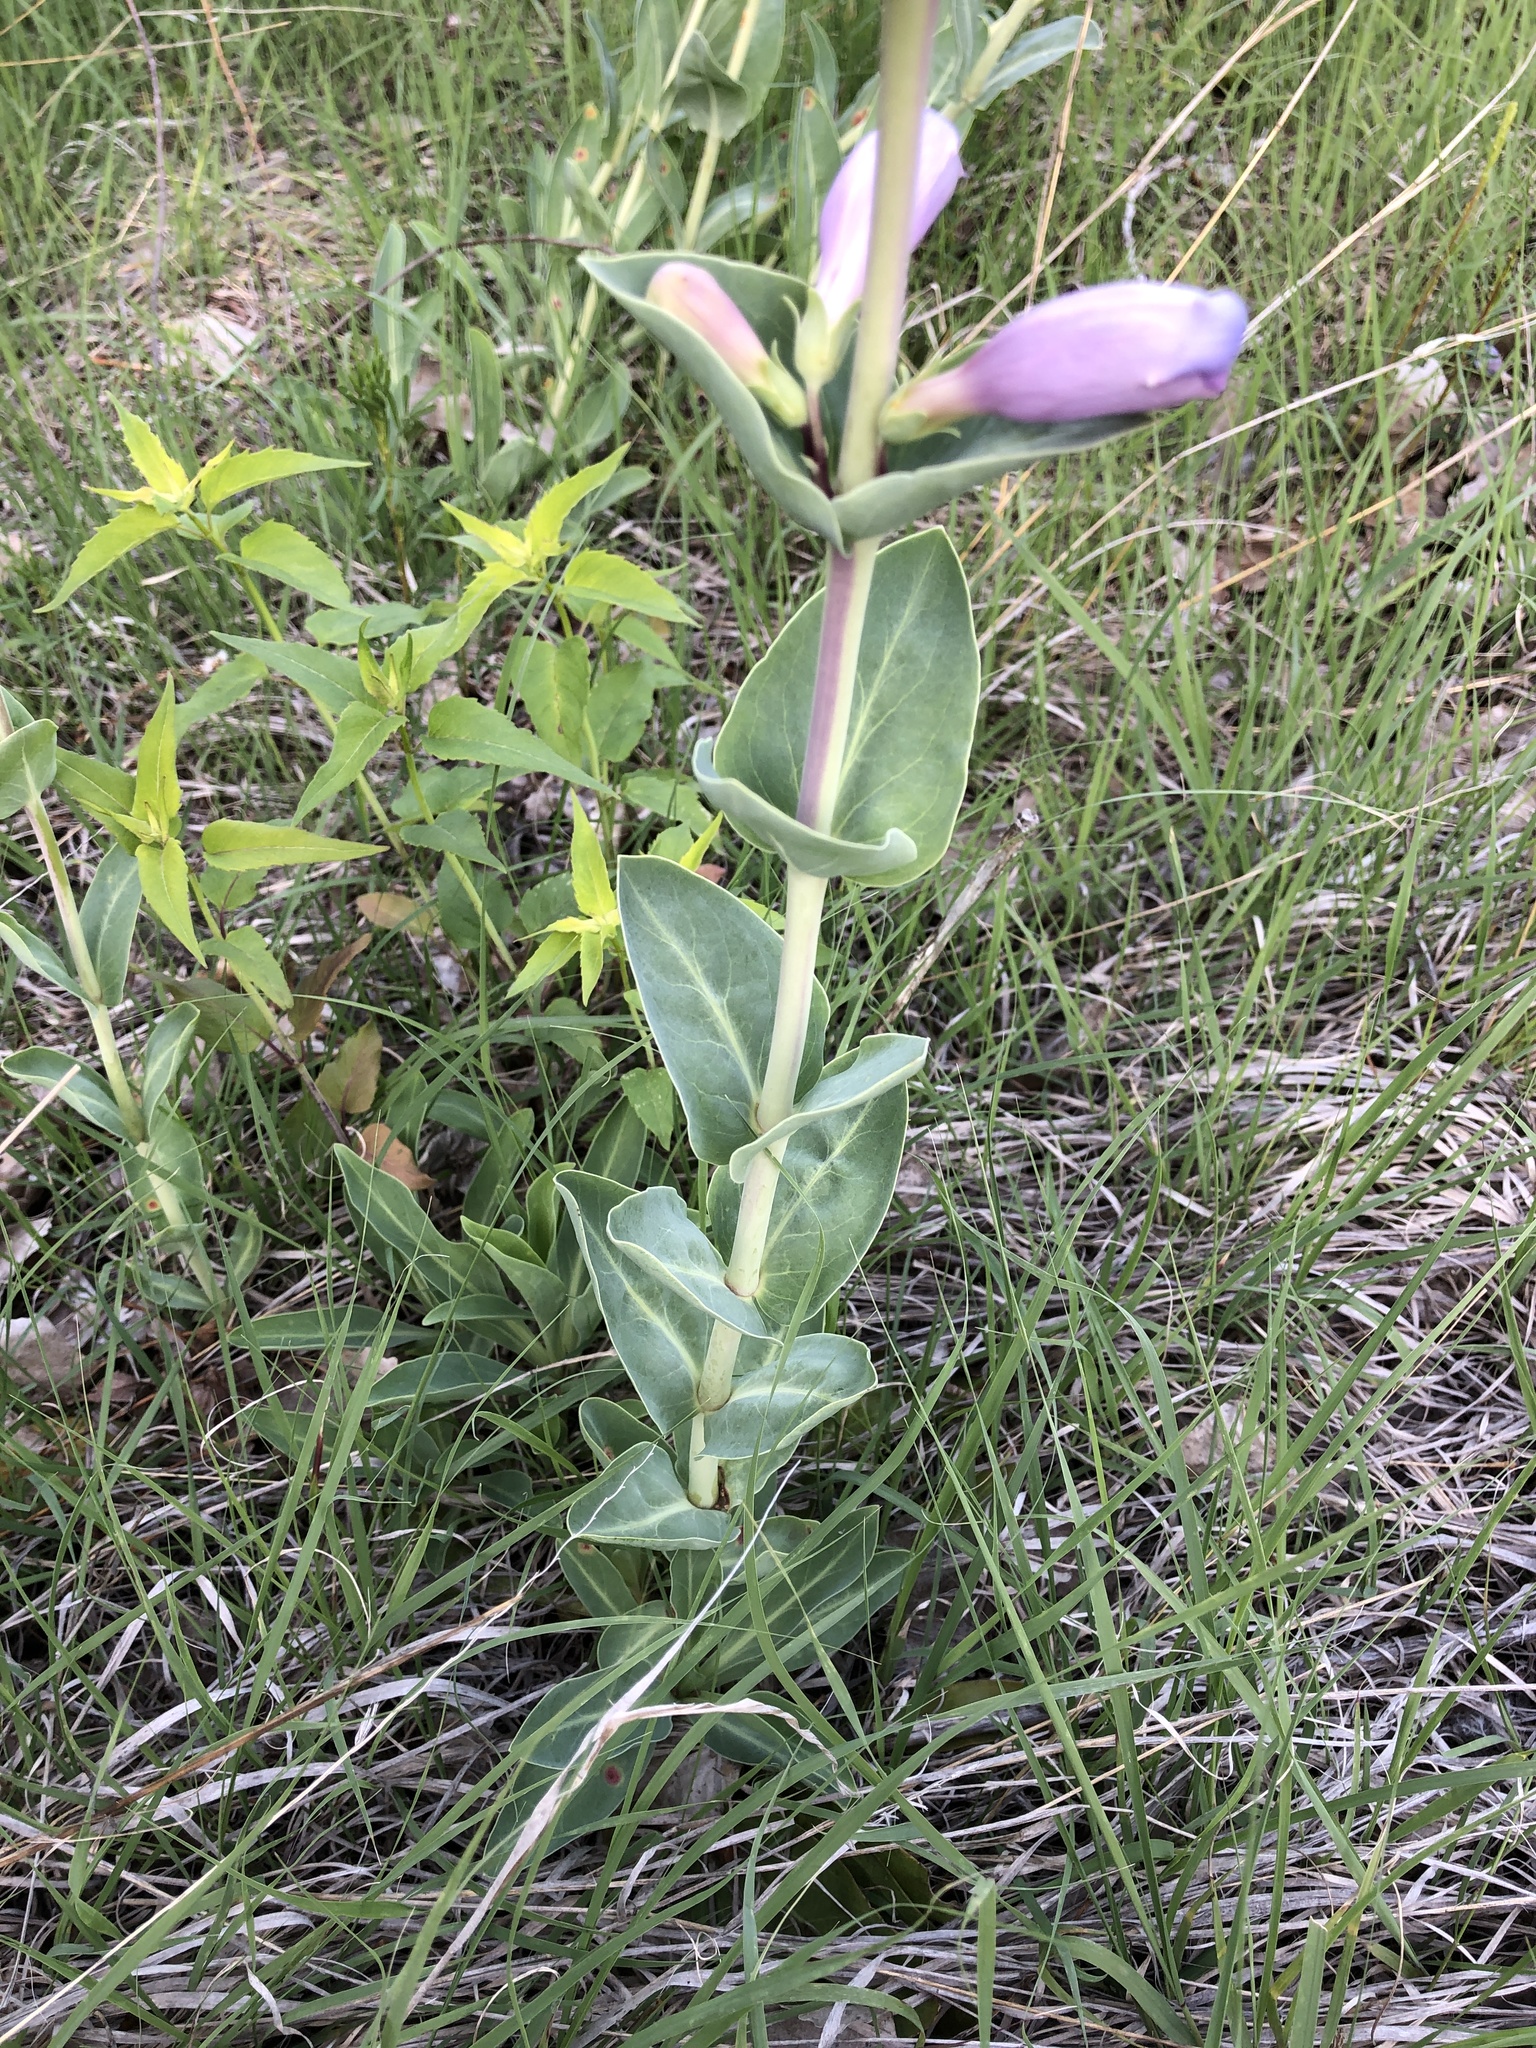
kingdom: Plantae
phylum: Tracheophyta
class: Magnoliopsida
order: Lamiales
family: Plantaginaceae
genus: Penstemon
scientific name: Penstemon
